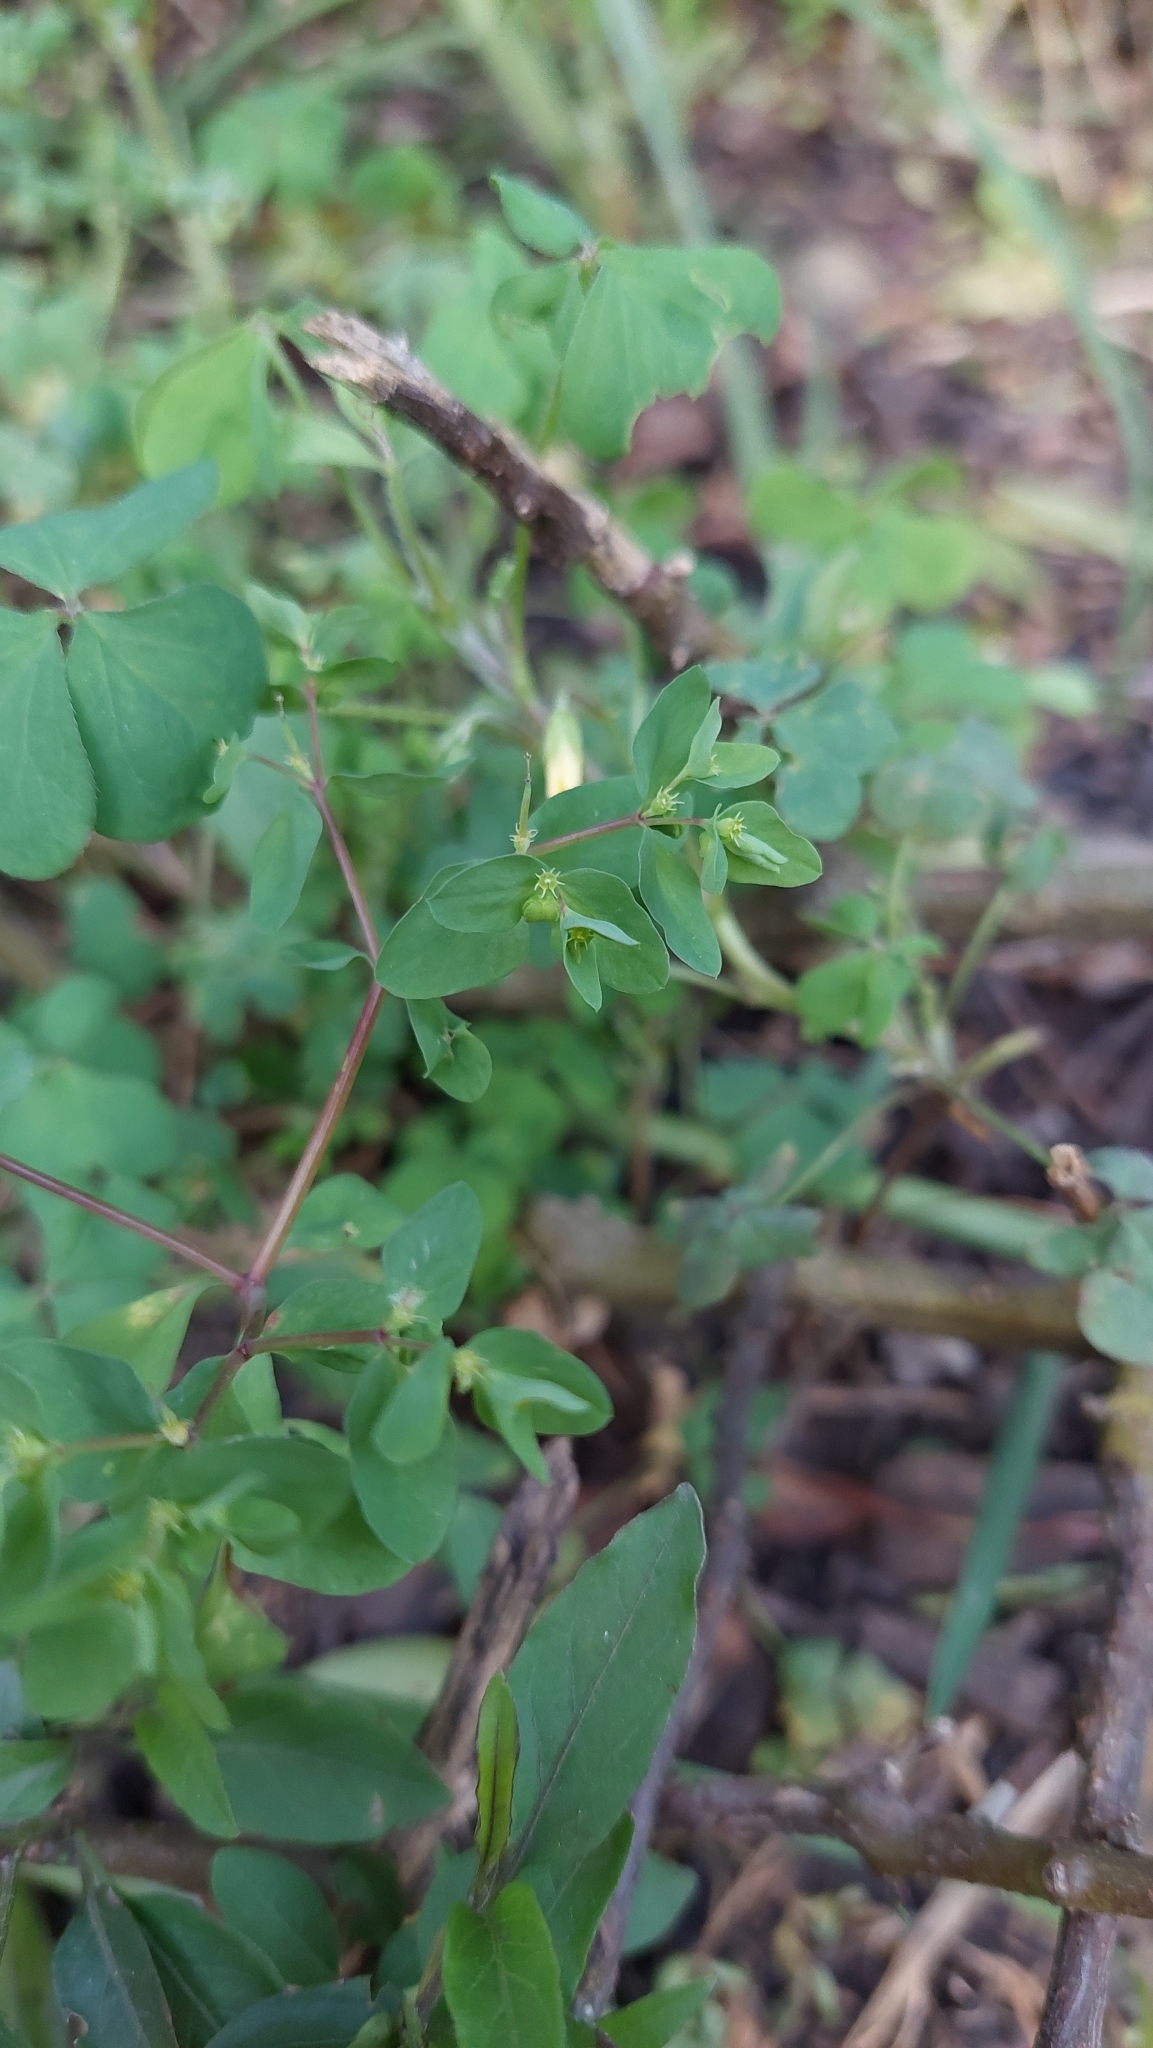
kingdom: Plantae
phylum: Tracheophyta
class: Magnoliopsida
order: Malpighiales
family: Euphorbiaceae
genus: Euphorbia
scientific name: Euphorbia peplus
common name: Petty spurge
